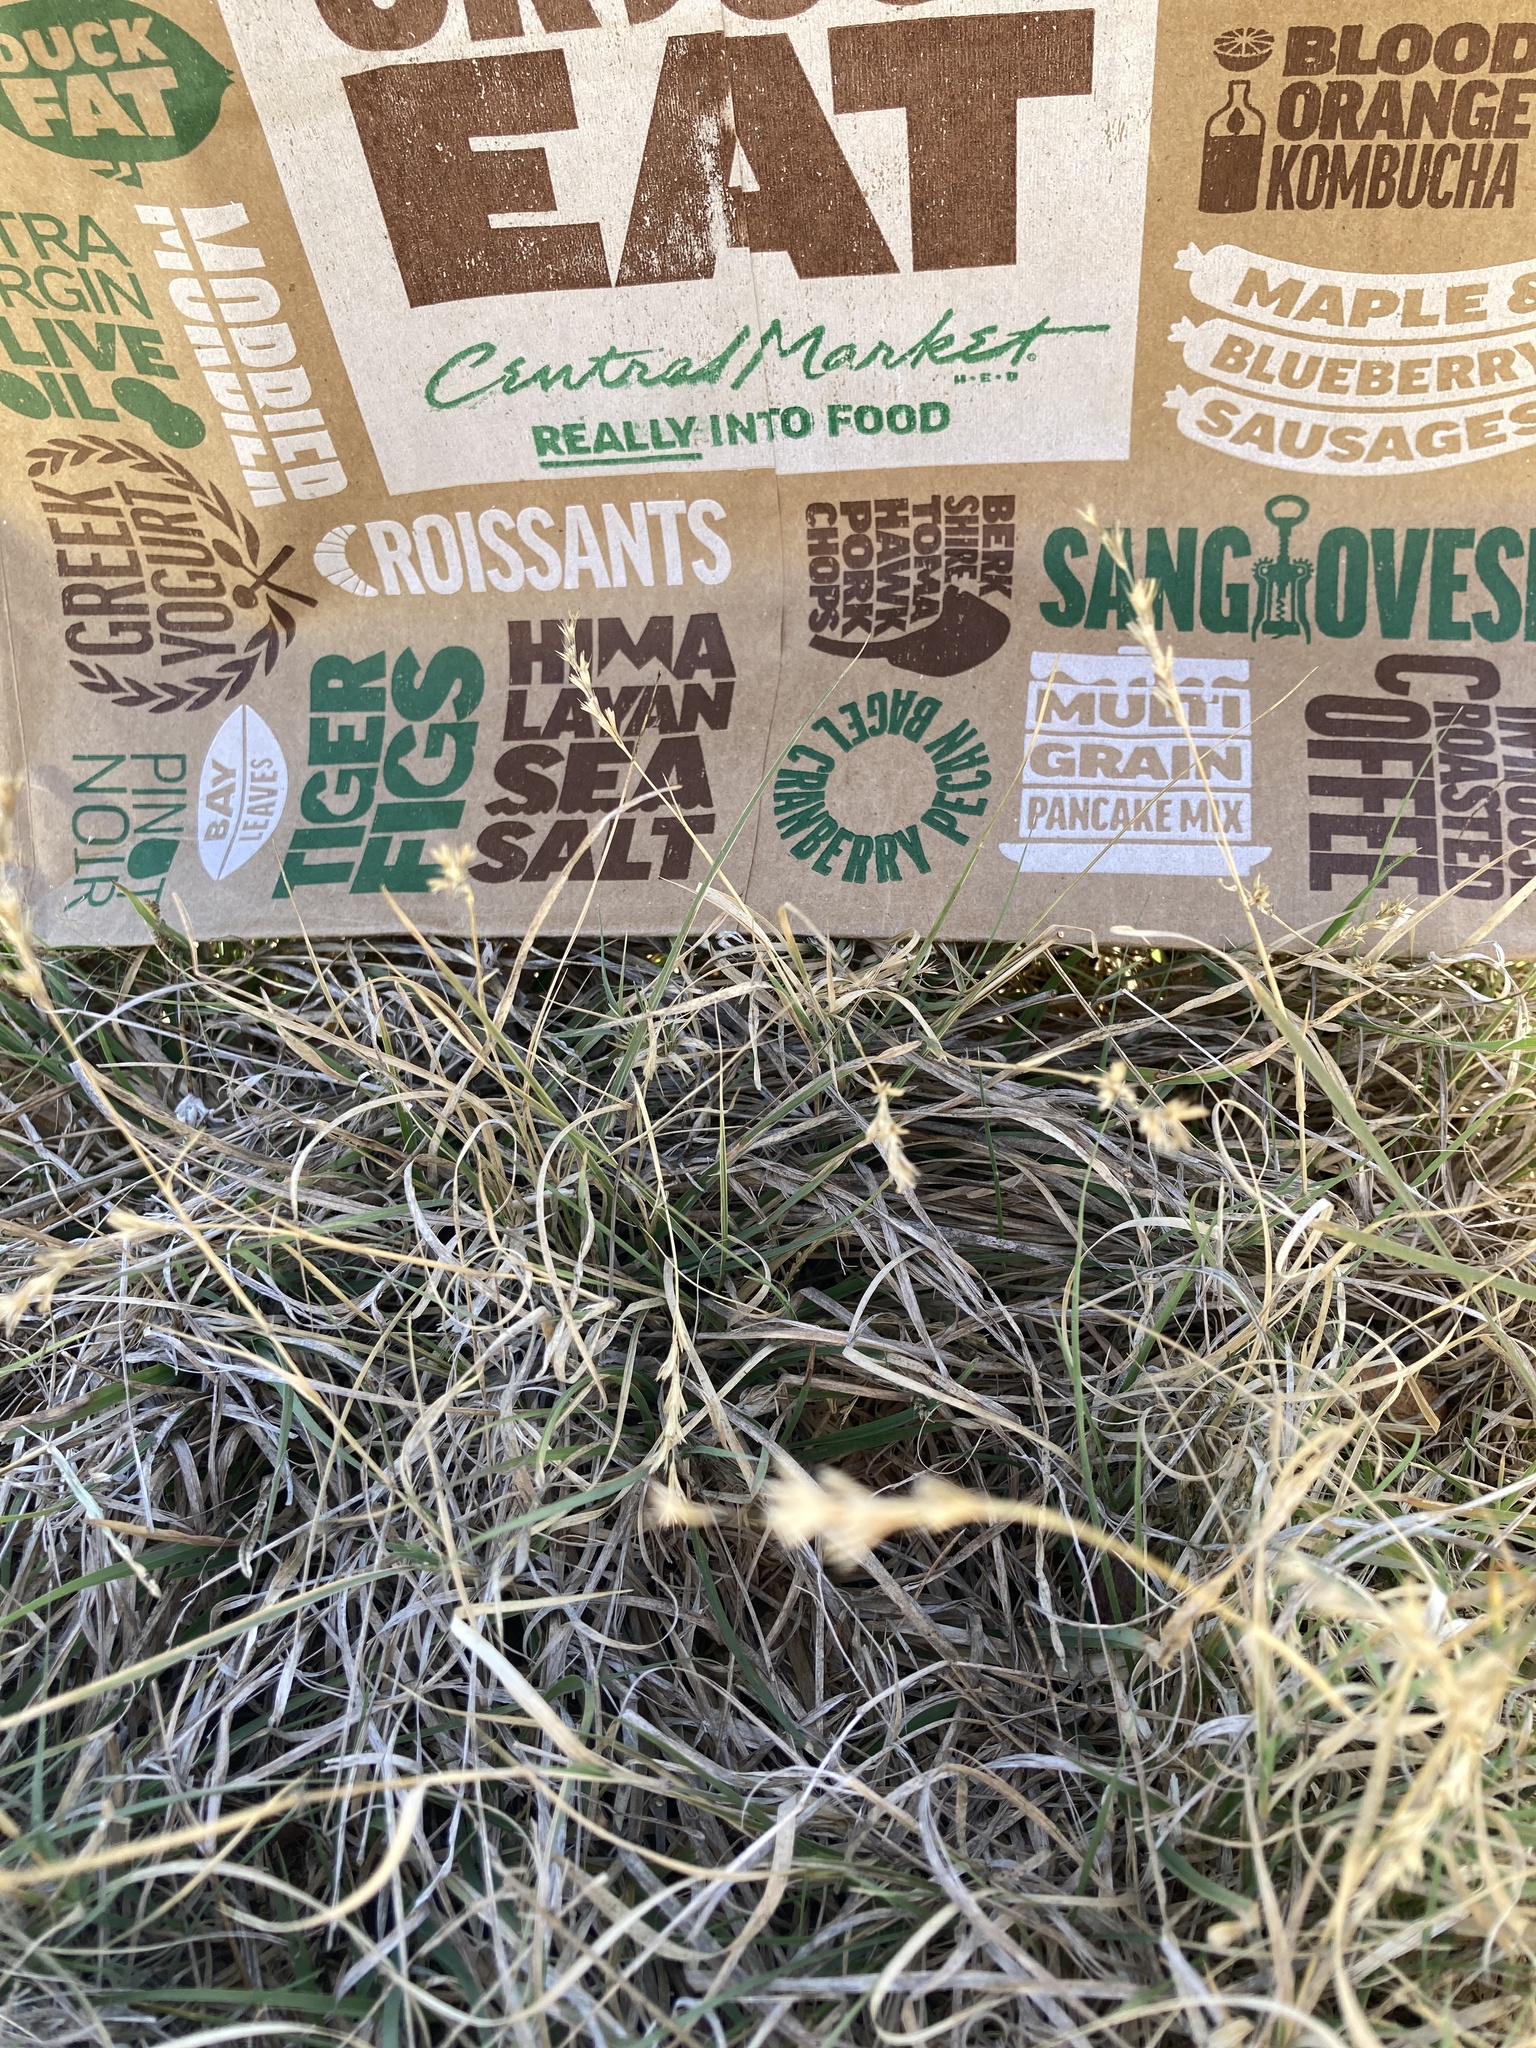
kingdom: Plantae
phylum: Tracheophyta
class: Liliopsida
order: Poales
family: Poaceae
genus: Hilaria
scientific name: Hilaria belangeri
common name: Curly-mesquite
